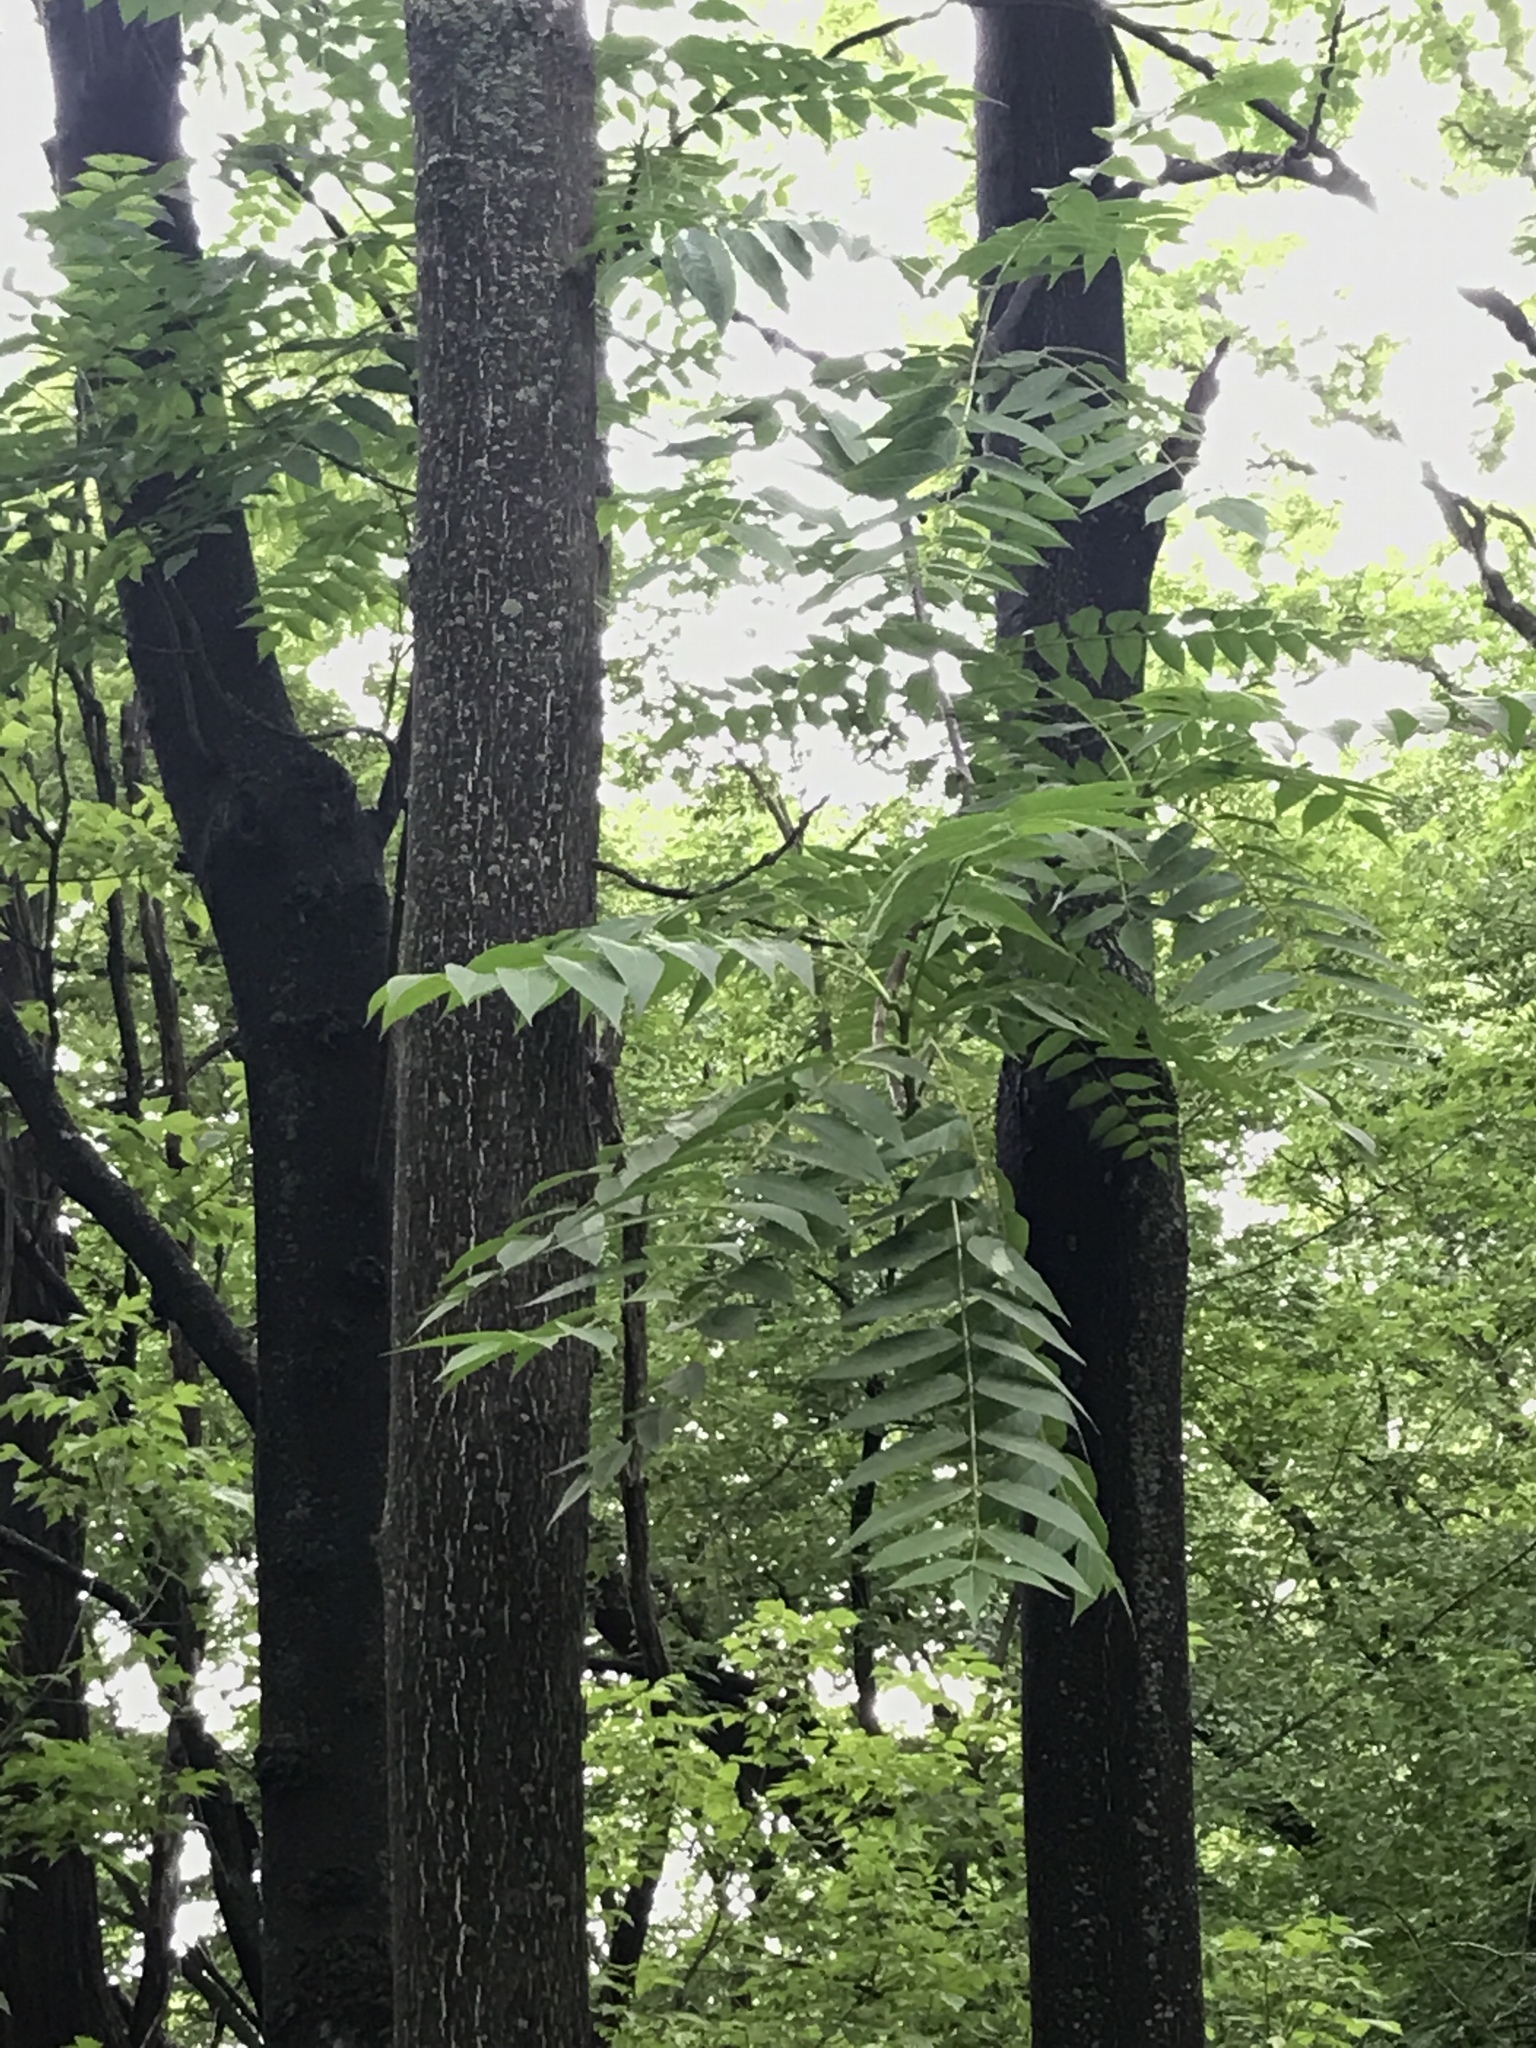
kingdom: Plantae
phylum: Tracheophyta
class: Magnoliopsida
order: Sapindales
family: Simaroubaceae
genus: Ailanthus
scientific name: Ailanthus altissima
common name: Tree-of-heaven
